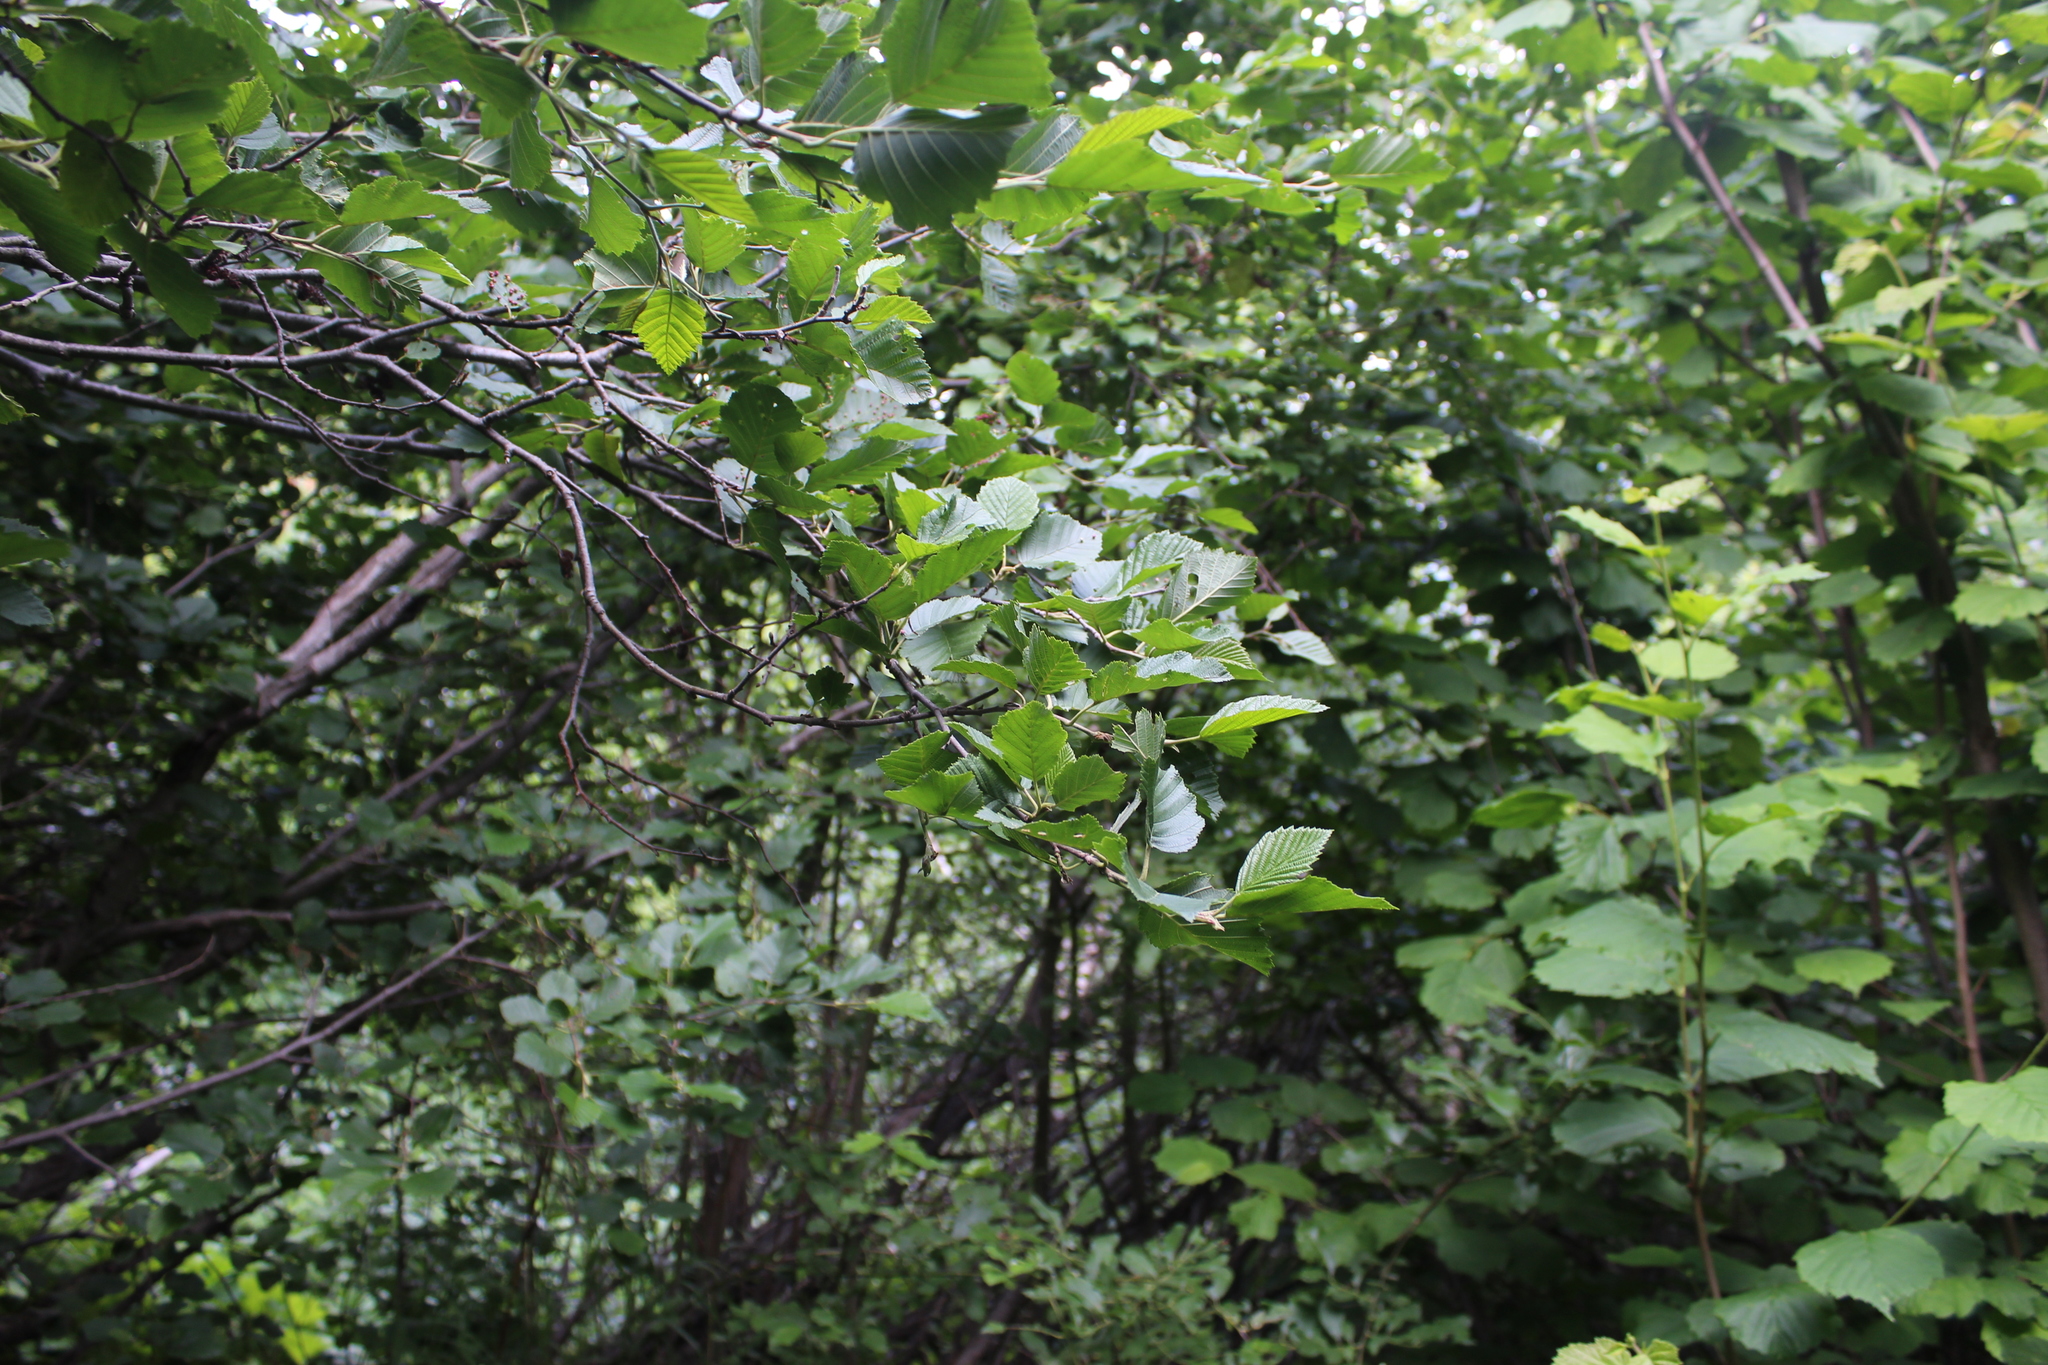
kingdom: Plantae
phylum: Tracheophyta
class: Magnoliopsida
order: Fagales
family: Betulaceae
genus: Alnus
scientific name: Alnus incana
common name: Grey alder
